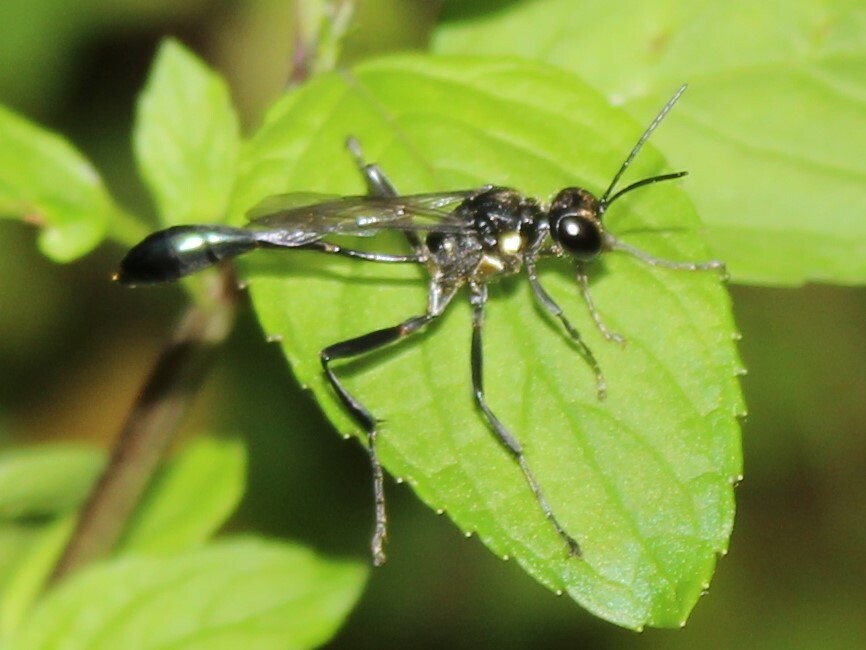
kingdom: Animalia
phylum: Arthropoda
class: Insecta
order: Hymenoptera
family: Sphecidae
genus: Eremnophila
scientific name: Eremnophila aureonotata
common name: Gold-marked thread-waisted wasp
